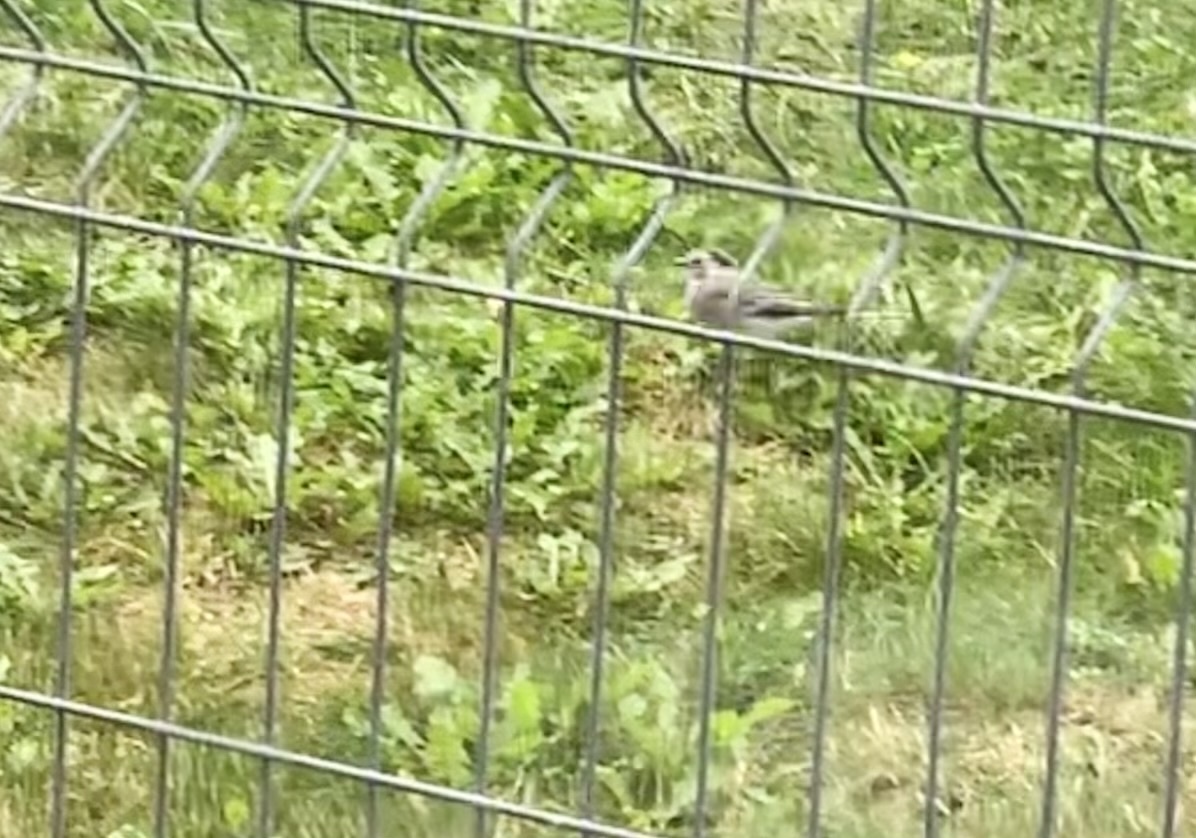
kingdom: Animalia
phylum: Chordata
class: Aves
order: Passeriformes
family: Motacillidae
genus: Motacilla
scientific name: Motacilla alba
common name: White wagtail
